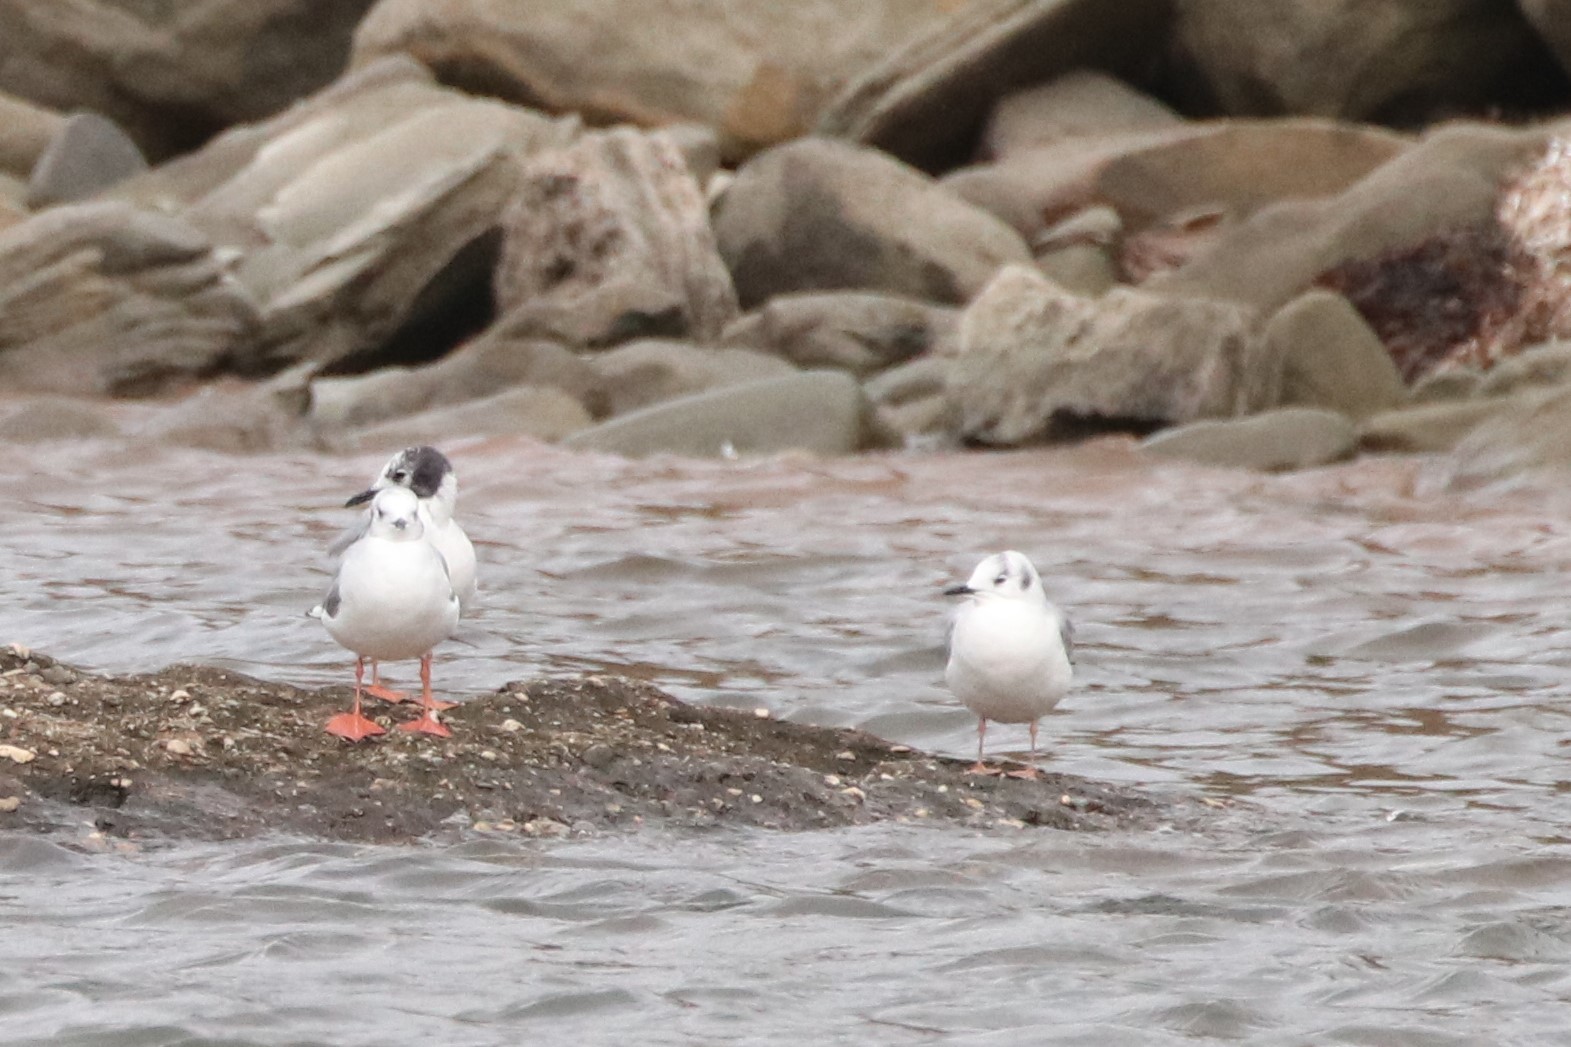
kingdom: Animalia
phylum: Chordata
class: Aves
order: Charadriiformes
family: Laridae
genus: Chroicocephalus
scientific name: Chroicocephalus philadelphia
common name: Bonaparte's gull
